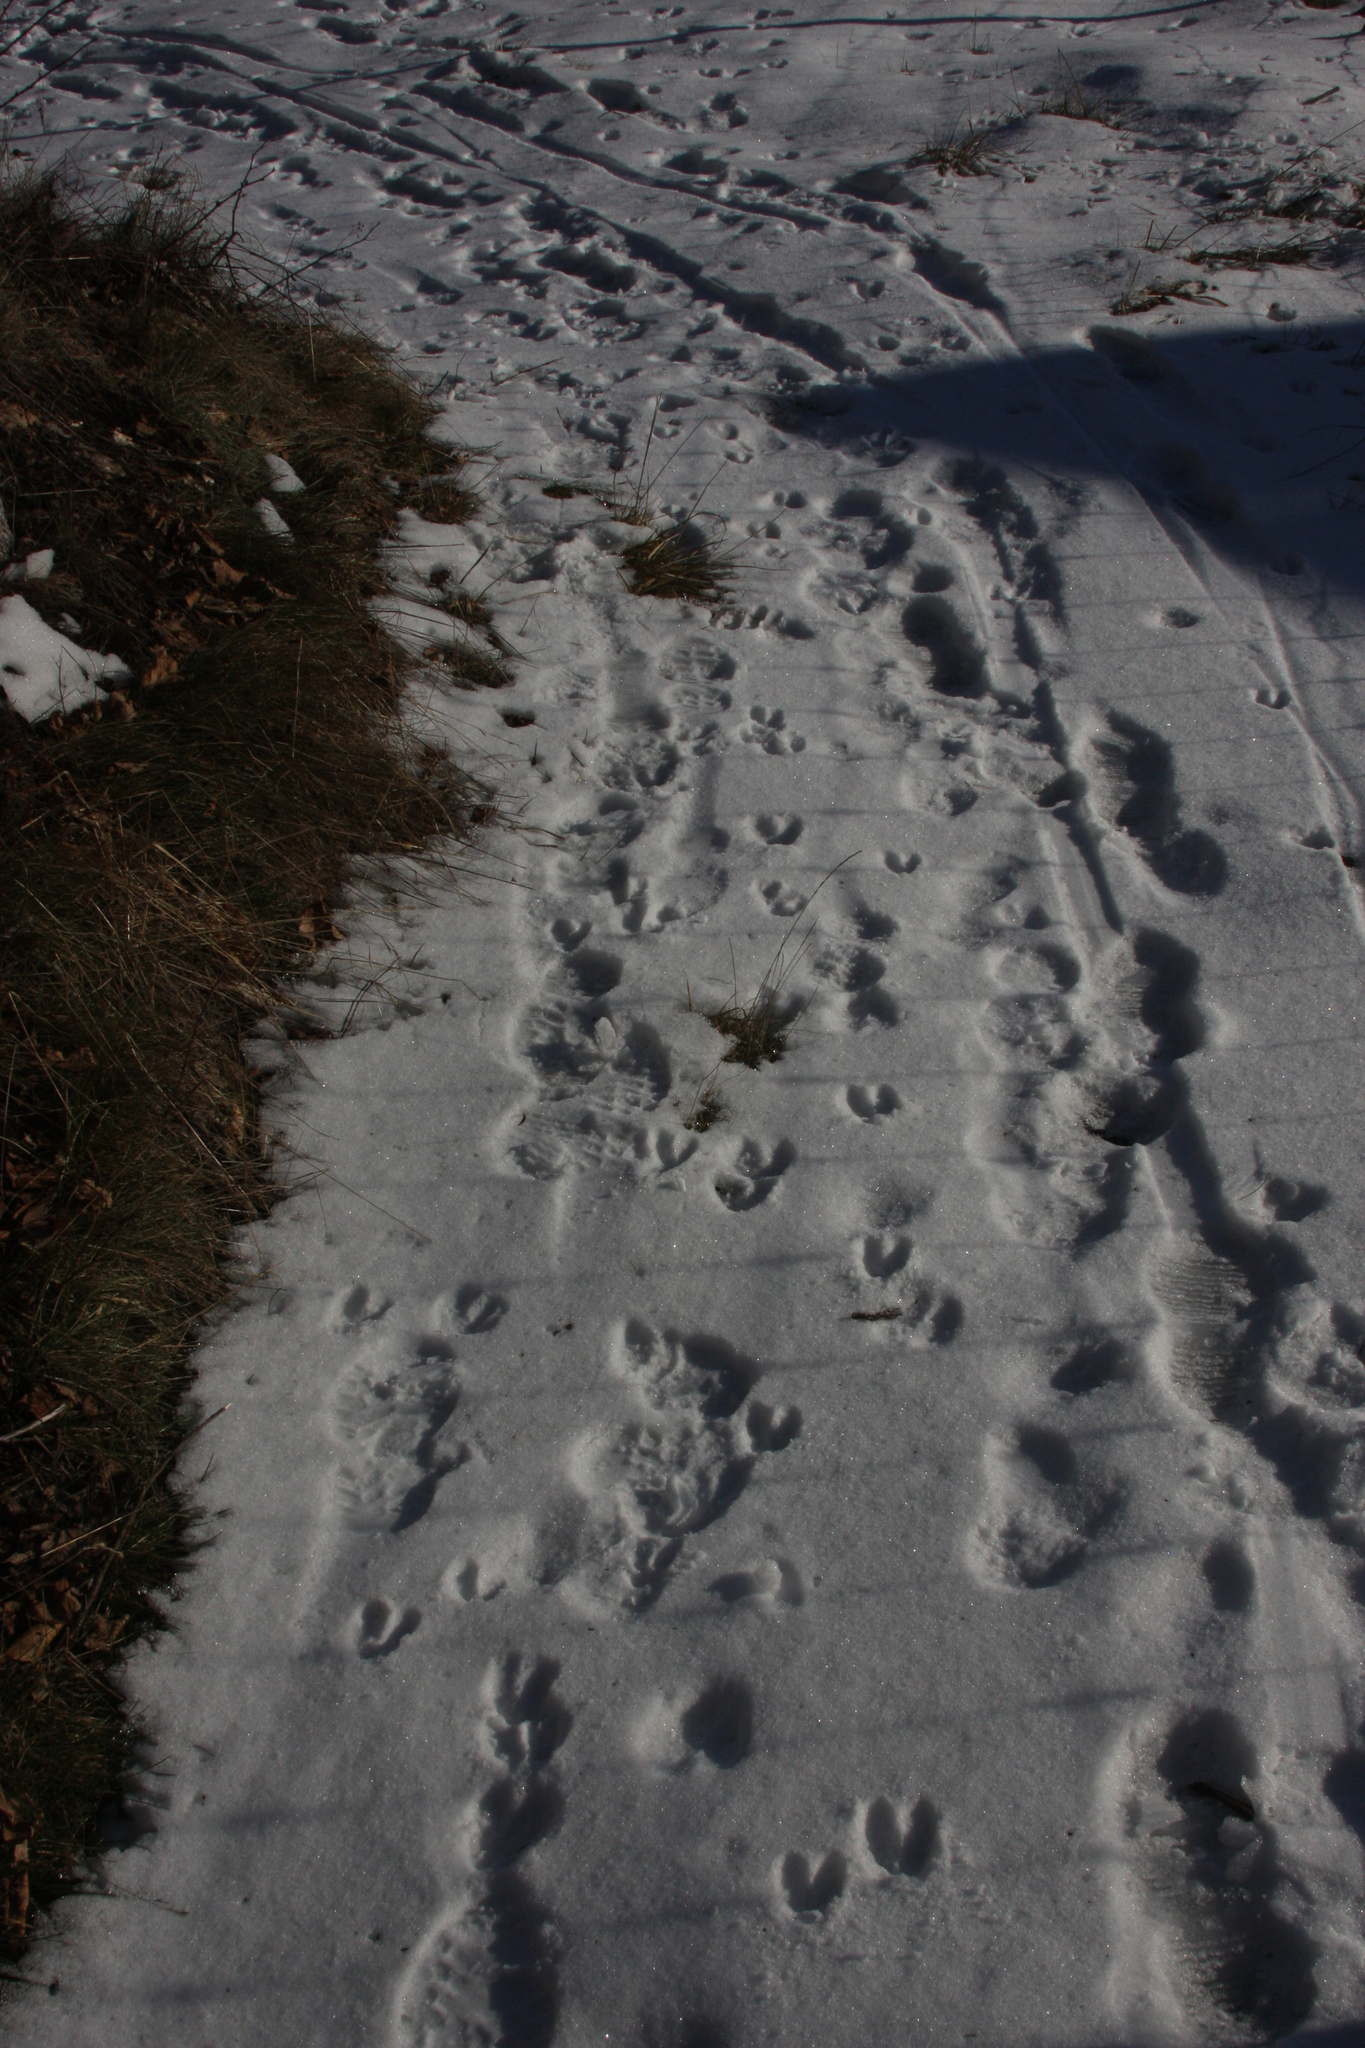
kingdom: Animalia
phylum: Chordata
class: Mammalia
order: Artiodactyla
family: Cervidae
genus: Odocoileus
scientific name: Odocoileus virginianus
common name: White-tailed deer
